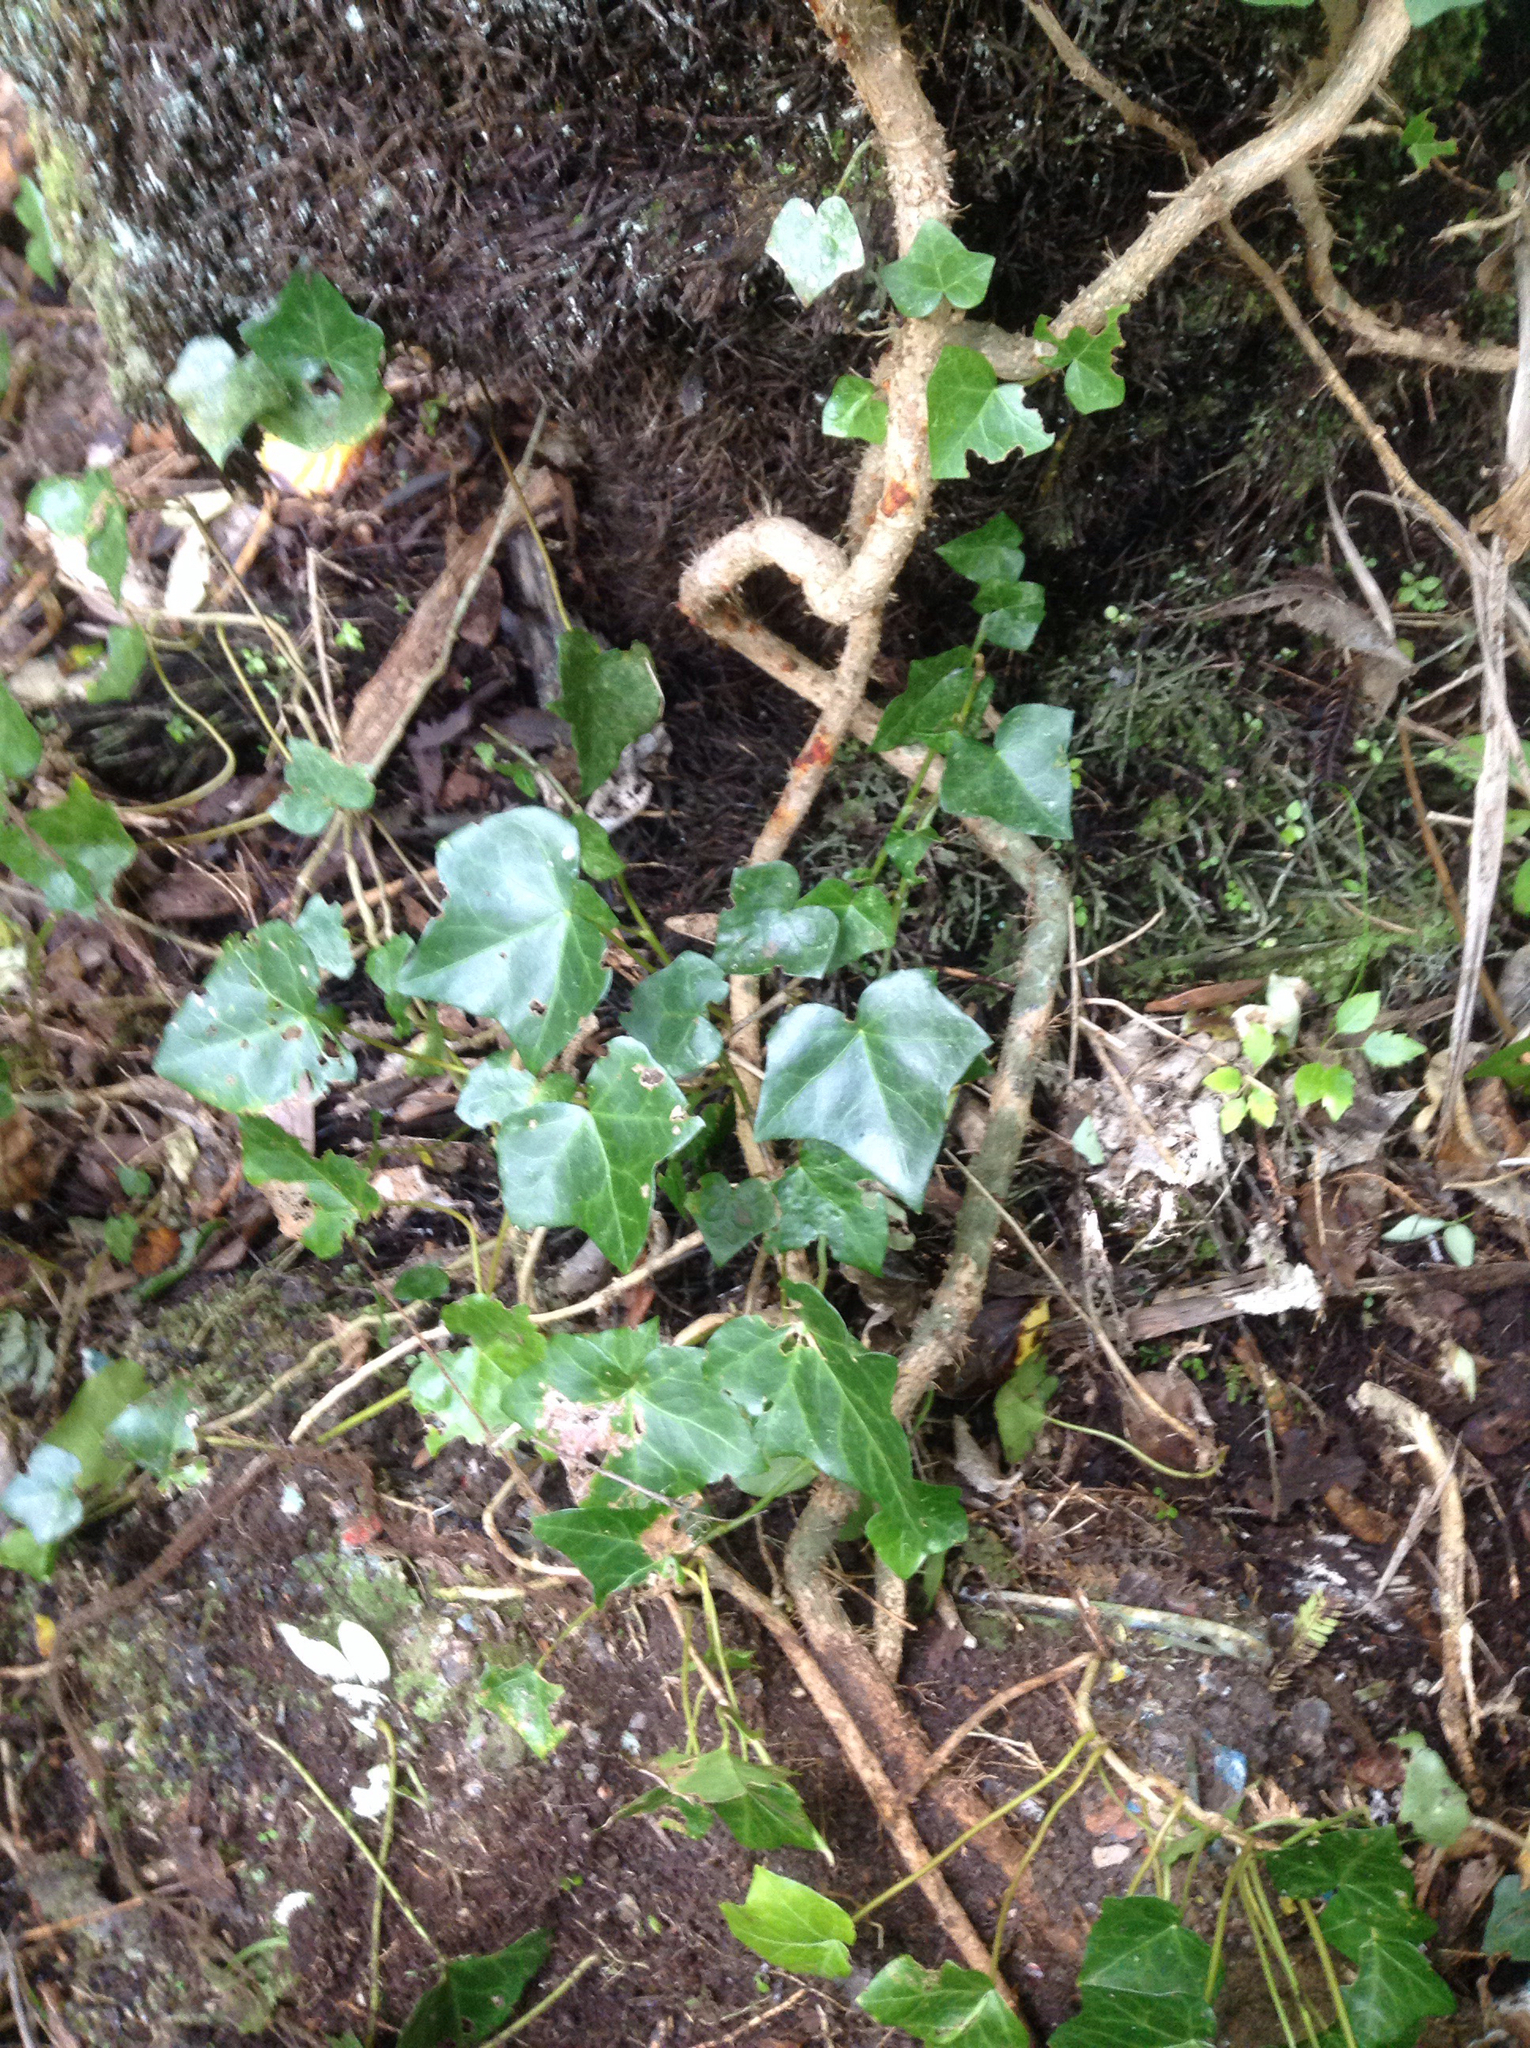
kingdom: Plantae
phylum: Tracheophyta
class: Magnoliopsida
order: Apiales
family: Araliaceae
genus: Hedera
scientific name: Hedera helix
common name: Ivy
